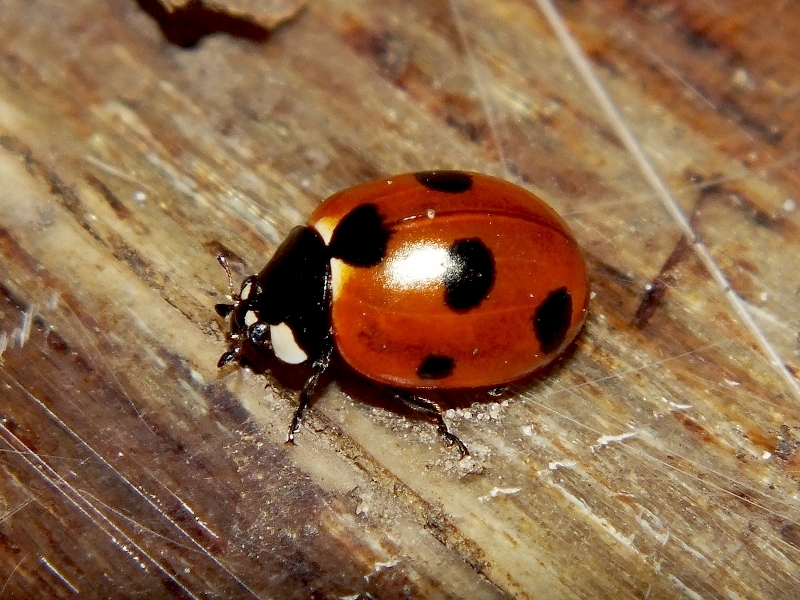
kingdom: Animalia
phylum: Arthropoda
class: Insecta
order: Coleoptera
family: Coccinellidae
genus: Coccinella
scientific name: Coccinella magnifica
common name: Scarce 7-spot ladybird
